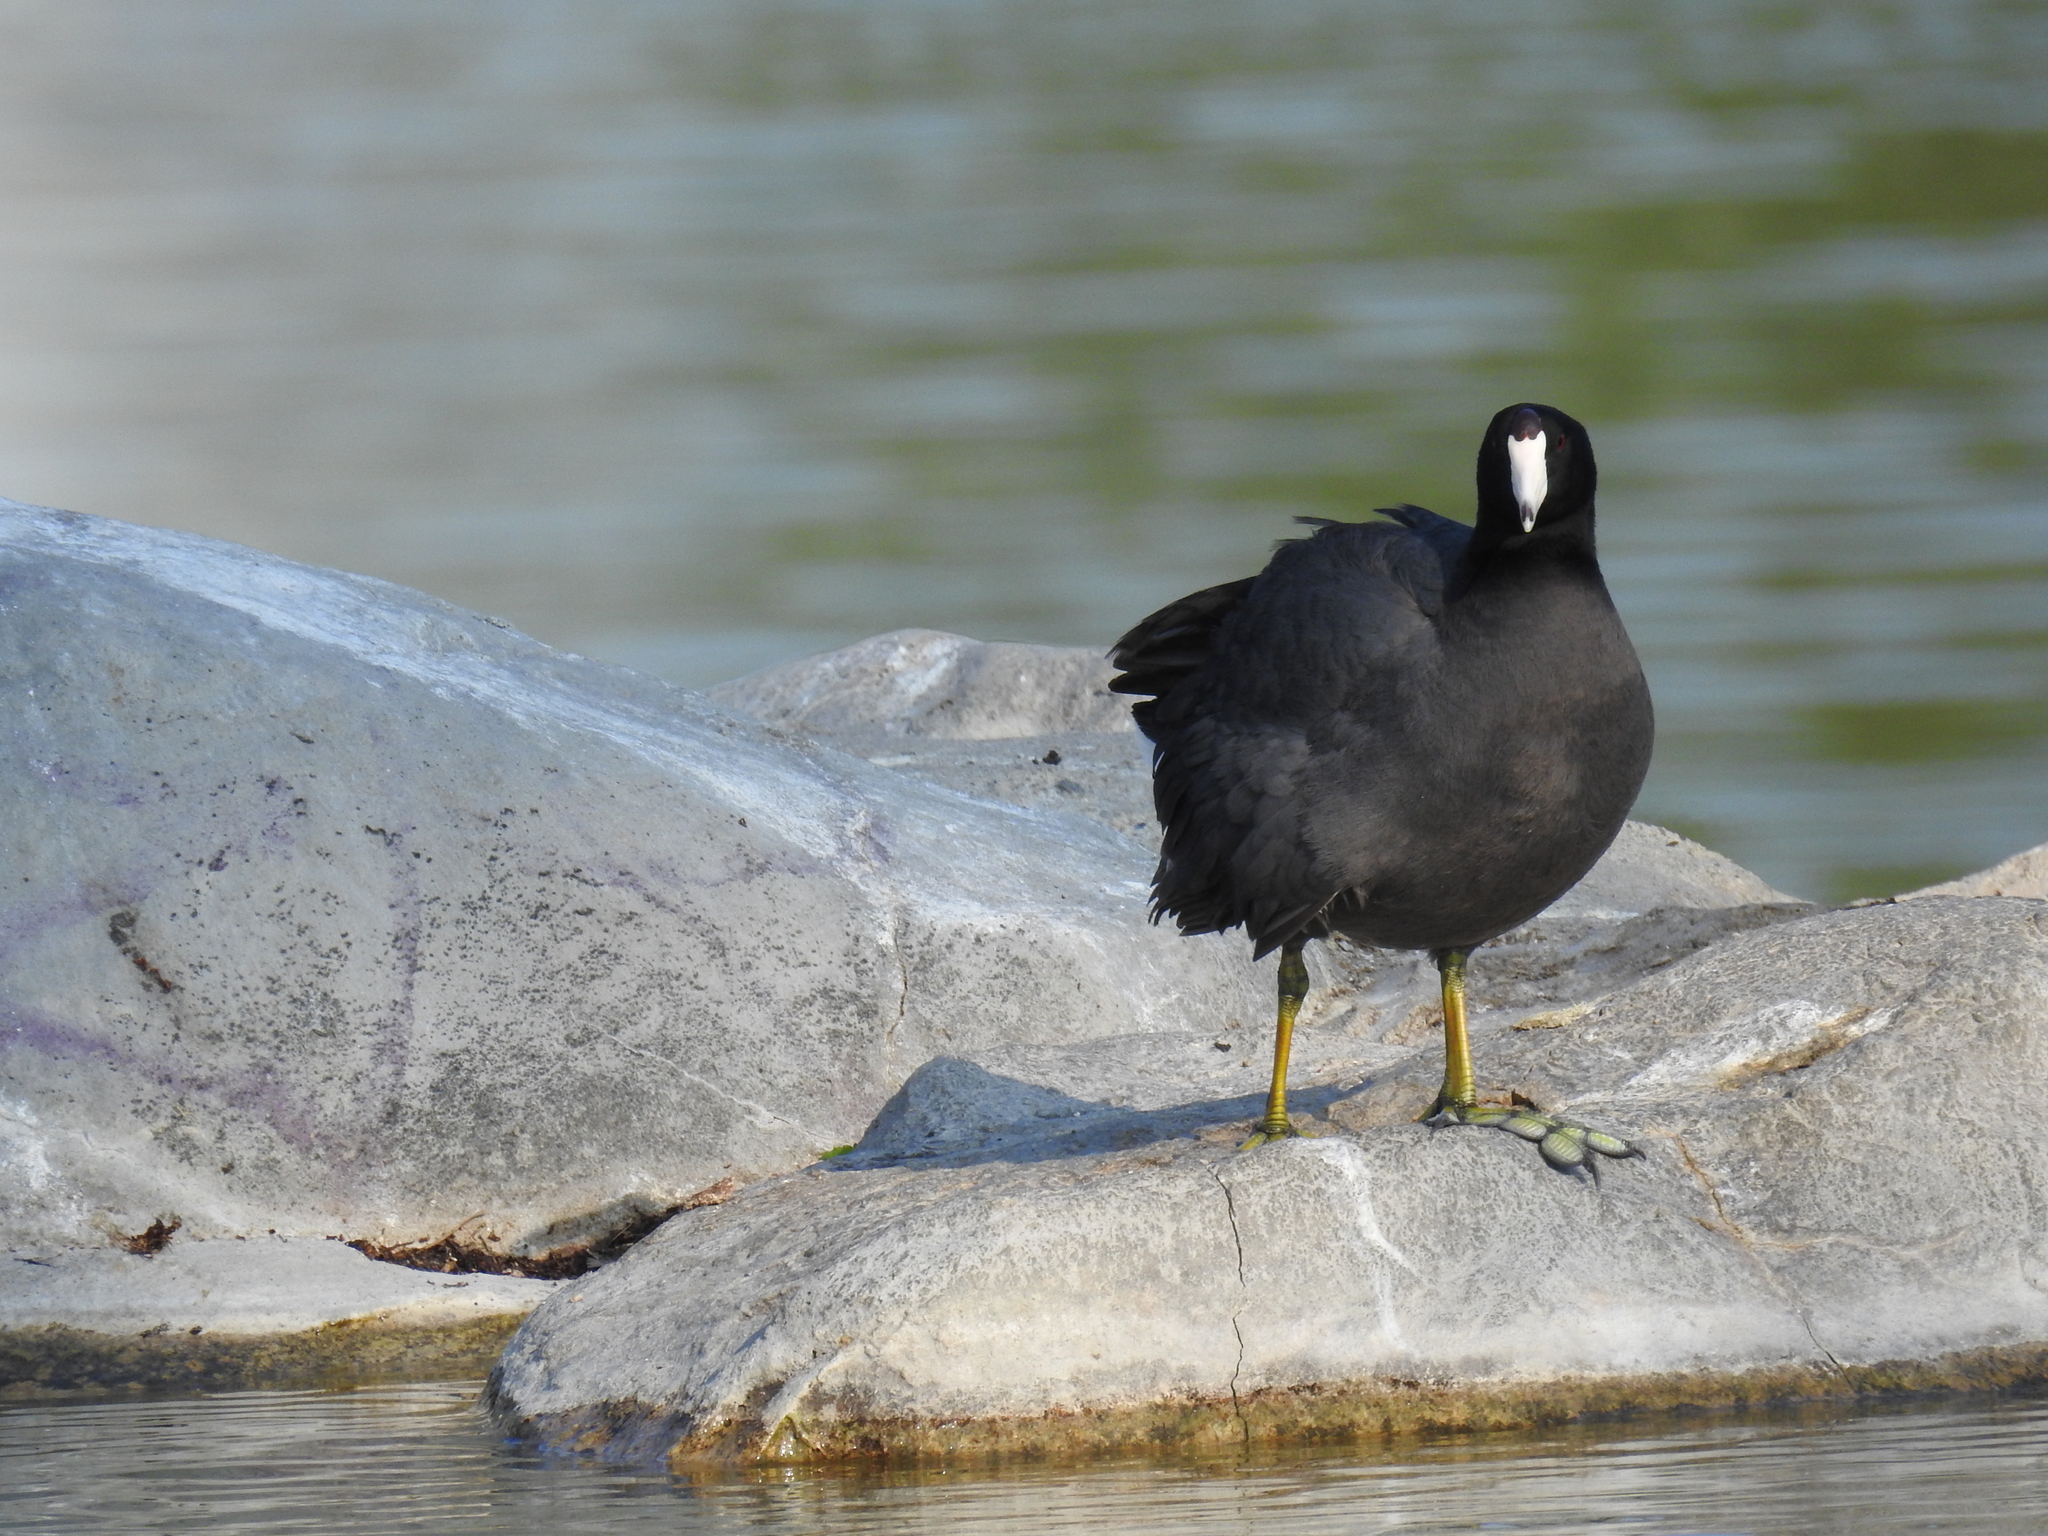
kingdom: Animalia
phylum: Chordata
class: Aves
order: Gruiformes
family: Rallidae
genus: Fulica
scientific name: Fulica americana
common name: American coot
